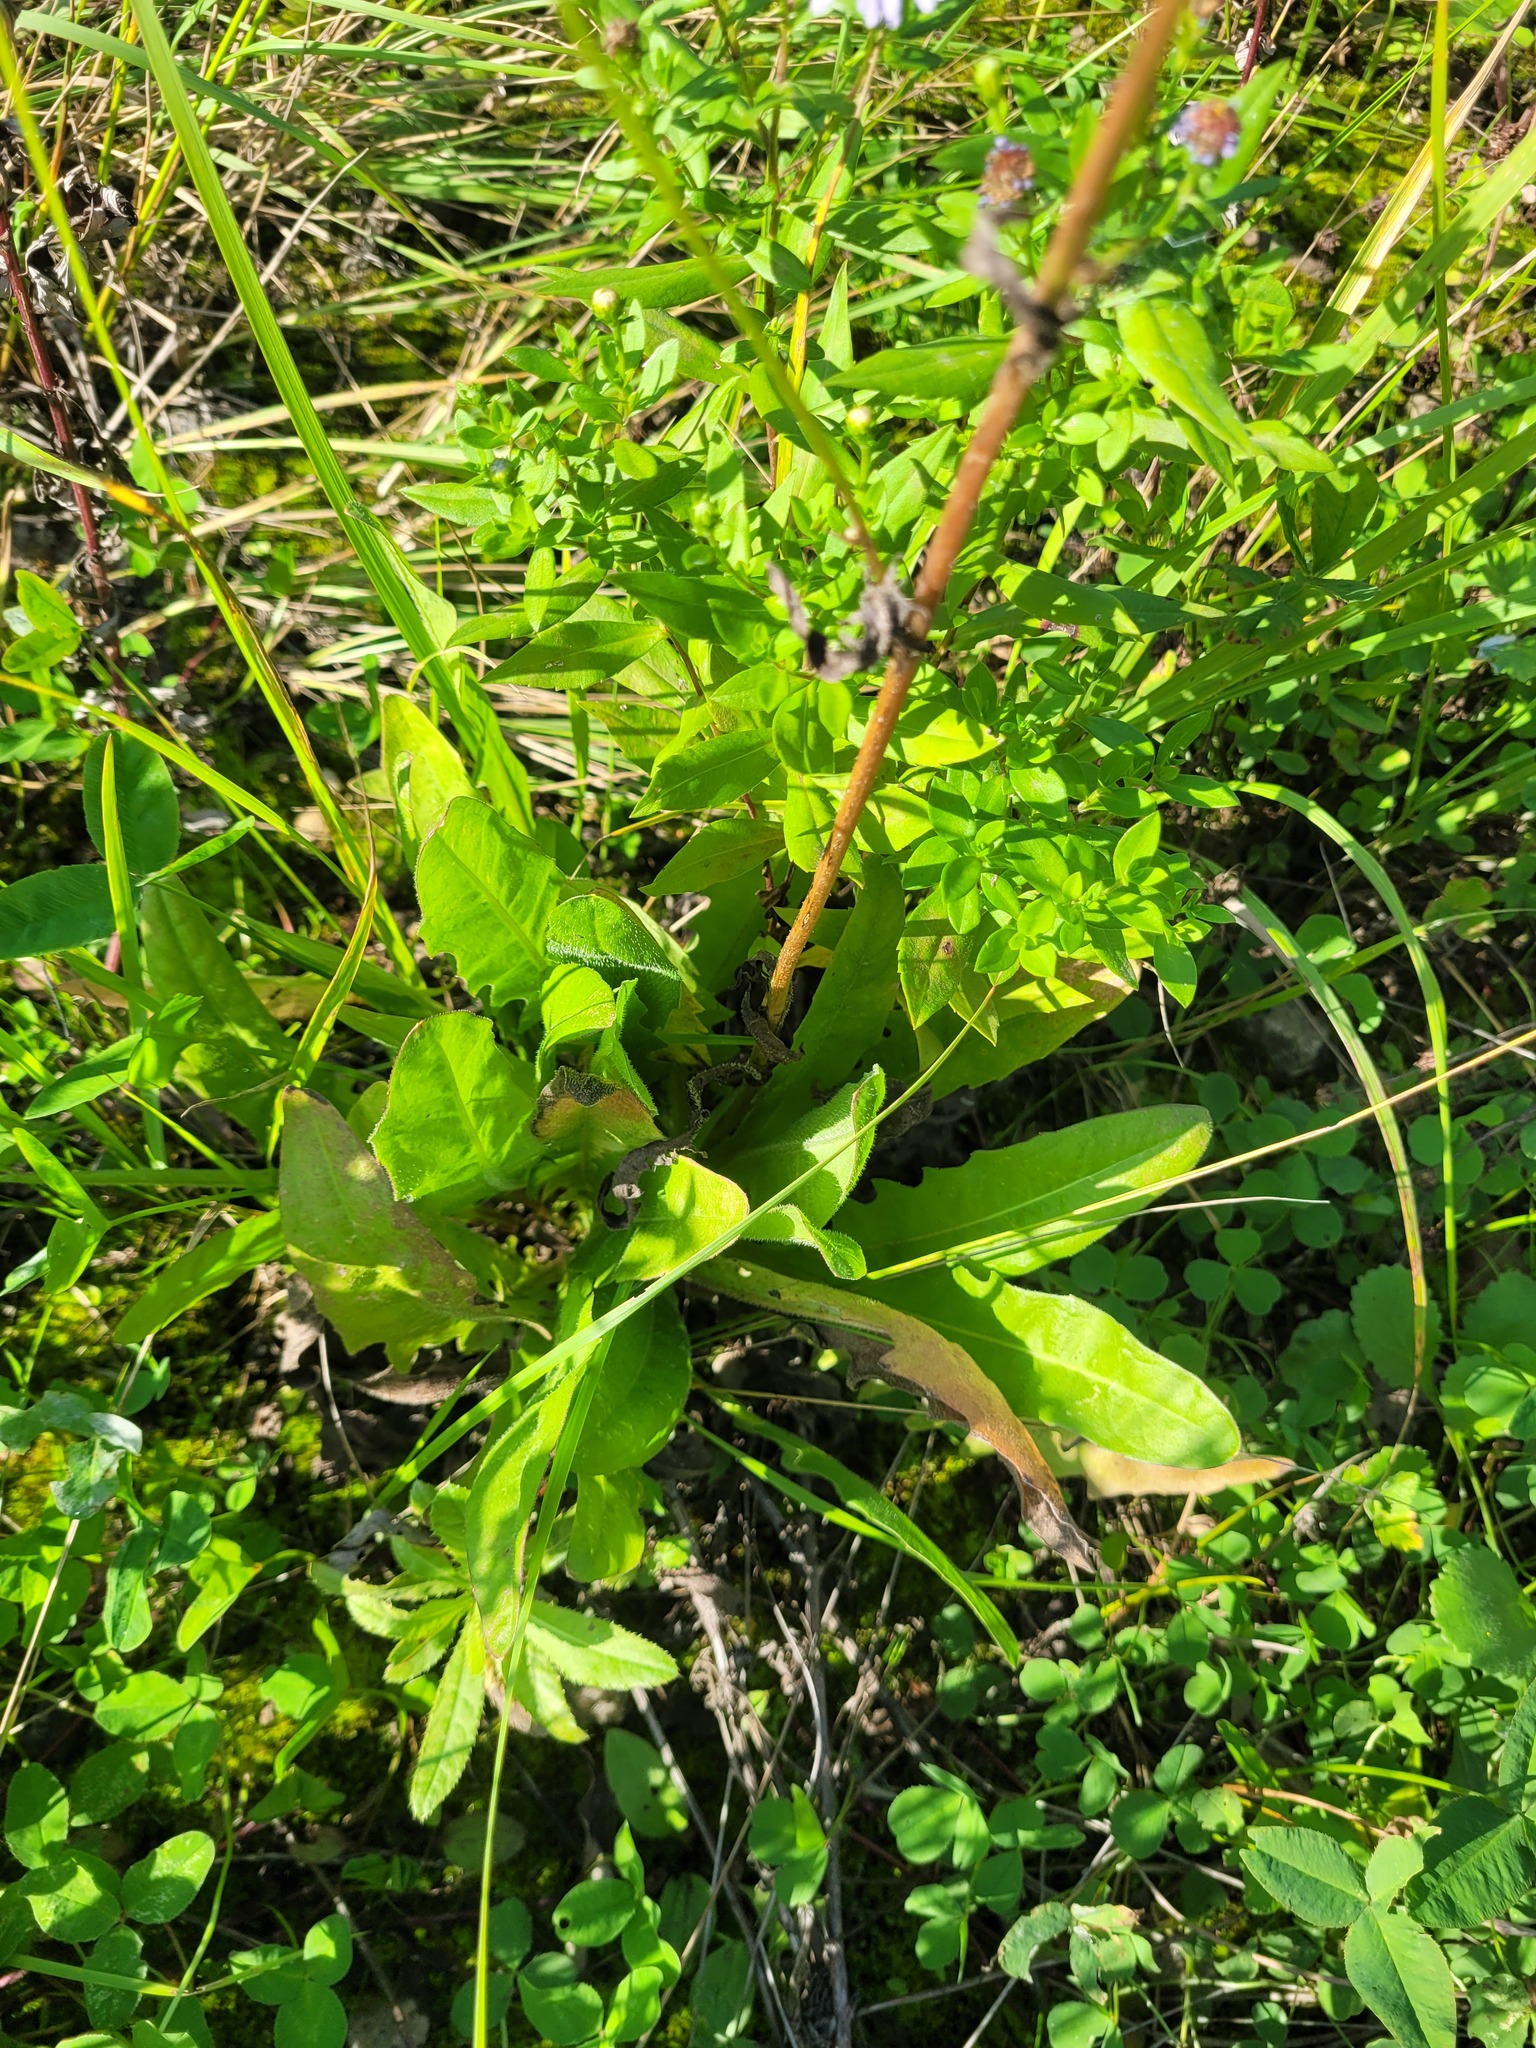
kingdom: Plantae
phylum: Tracheophyta
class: Magnoliopsida
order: Asterales
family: Asteraceae
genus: Crepis
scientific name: Crepis biennis
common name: Rough hawk's-beard
